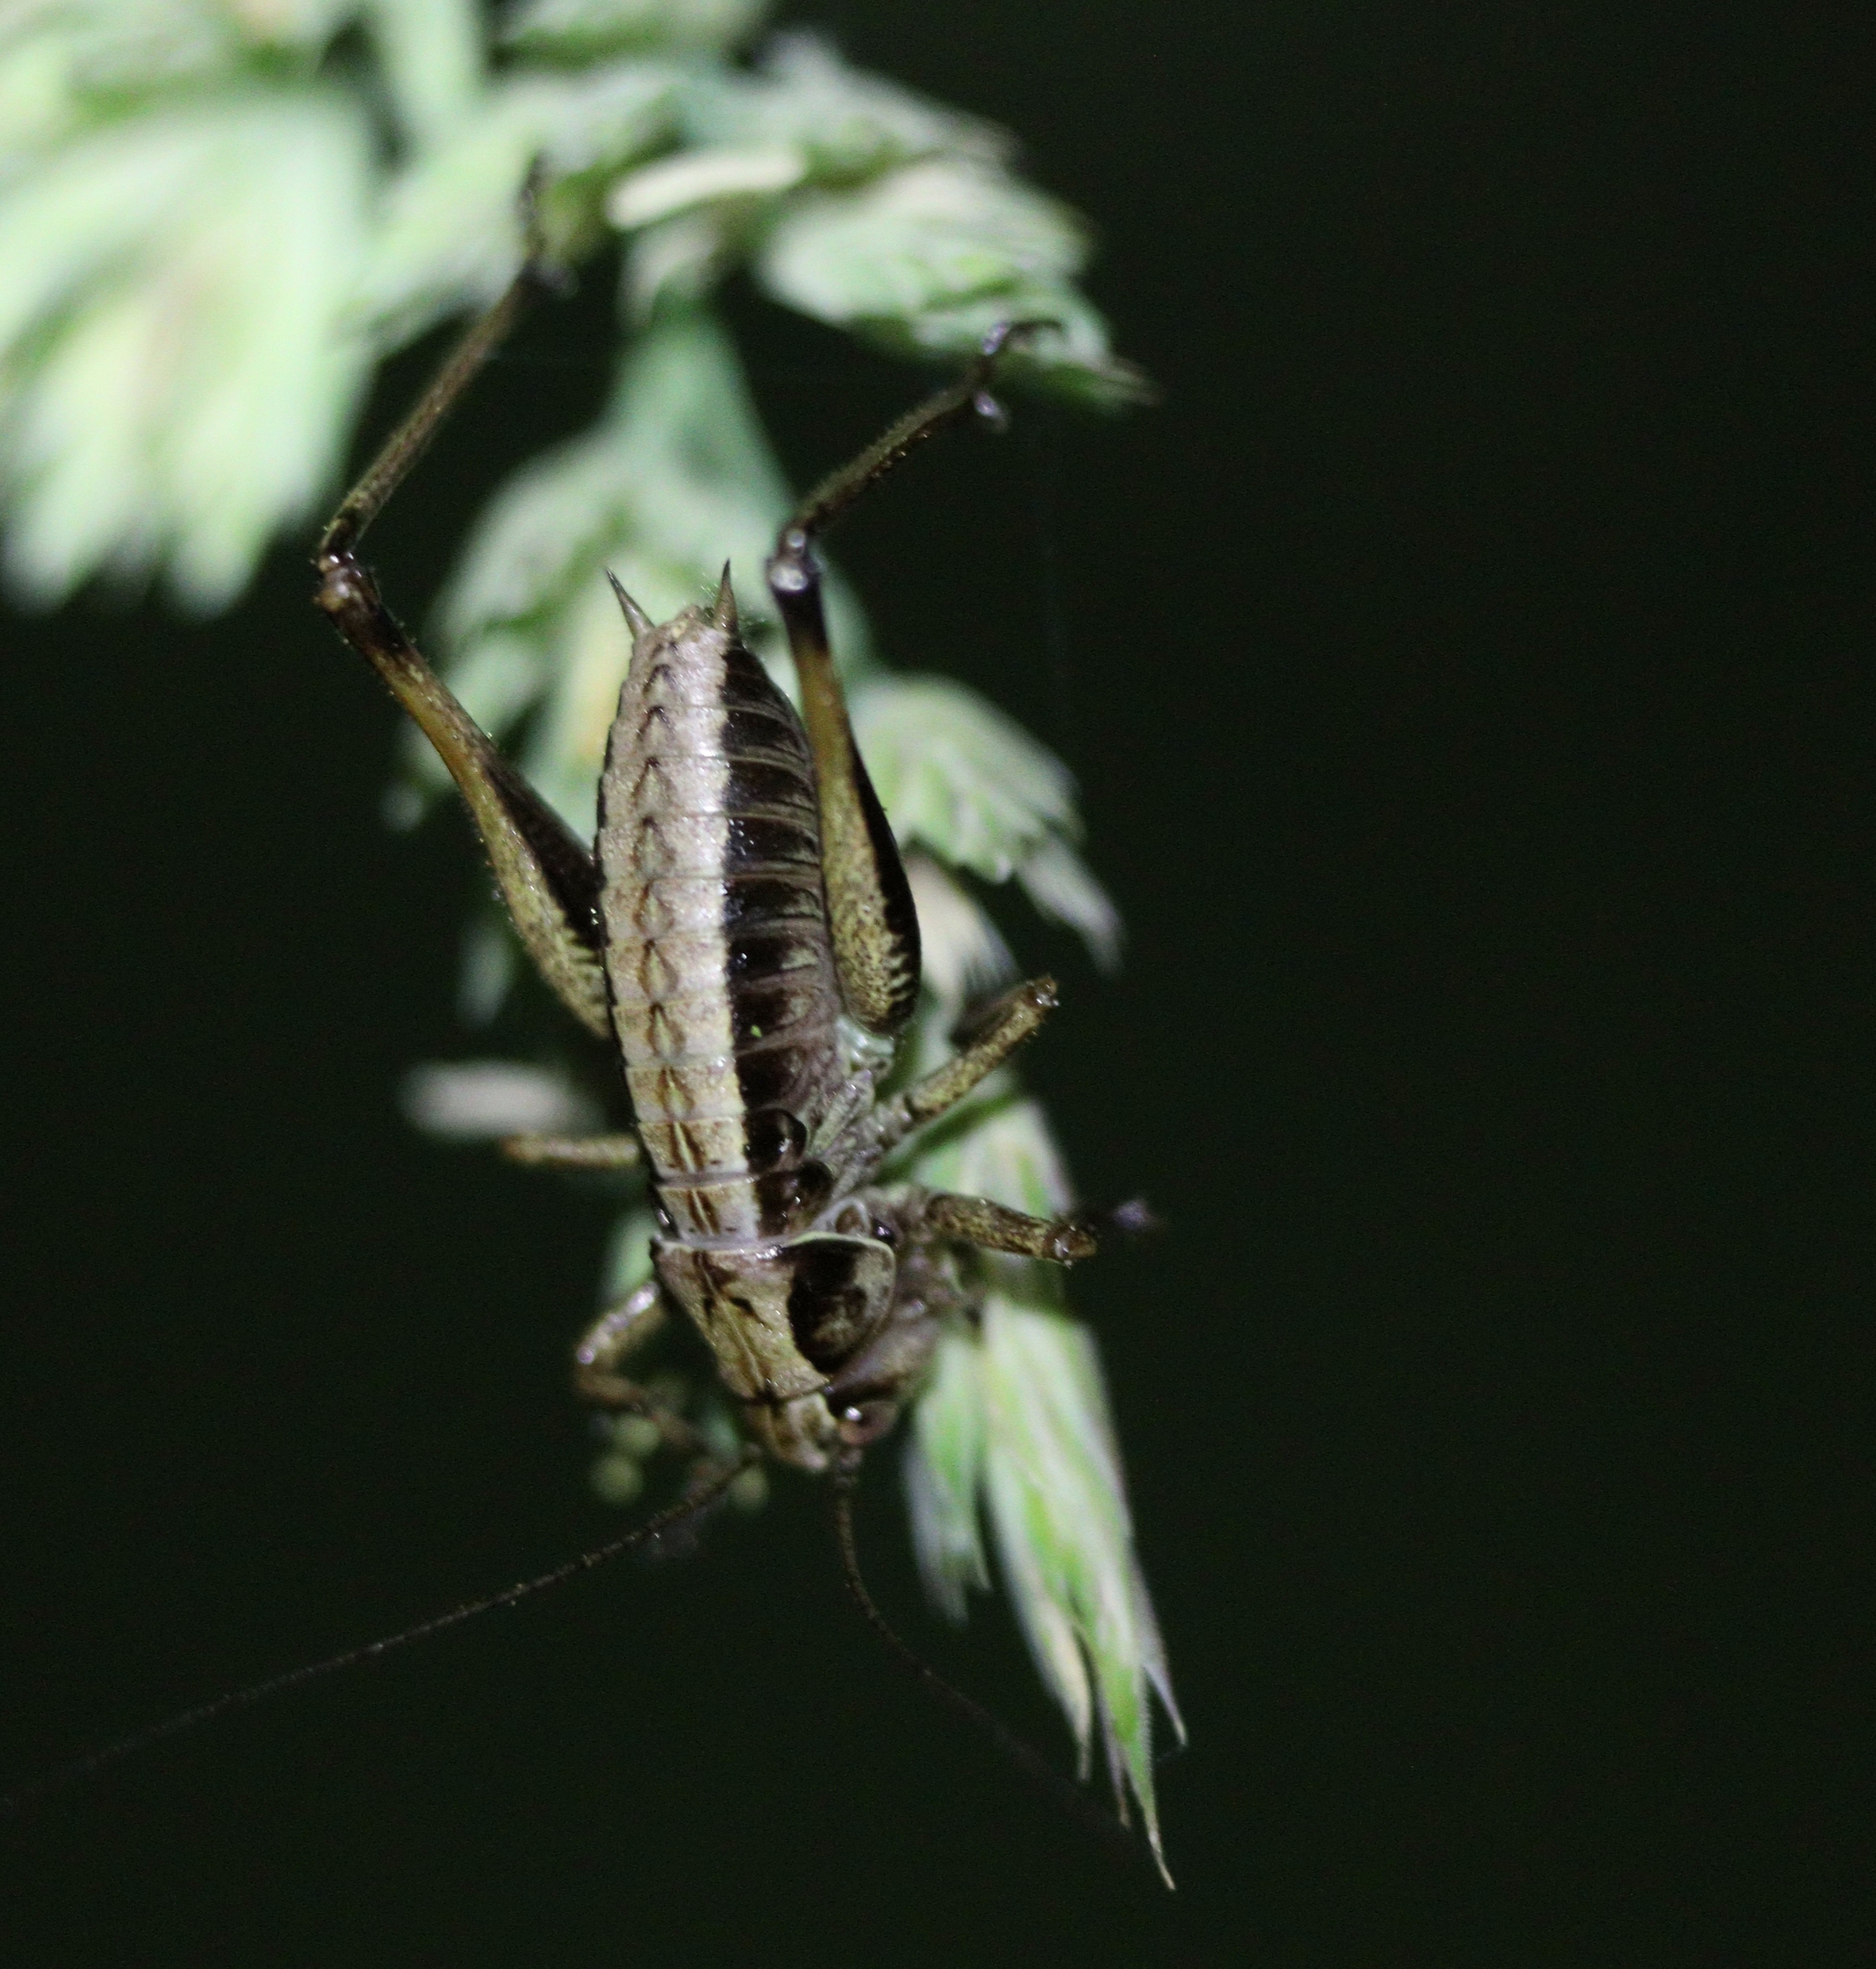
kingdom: Animalia
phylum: Arthropoda
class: Insecta
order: Orthoptera
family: Tettigoniidae
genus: Pholidoptera
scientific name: Pholidoptera griseoaptera
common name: Dark bush-cricket
